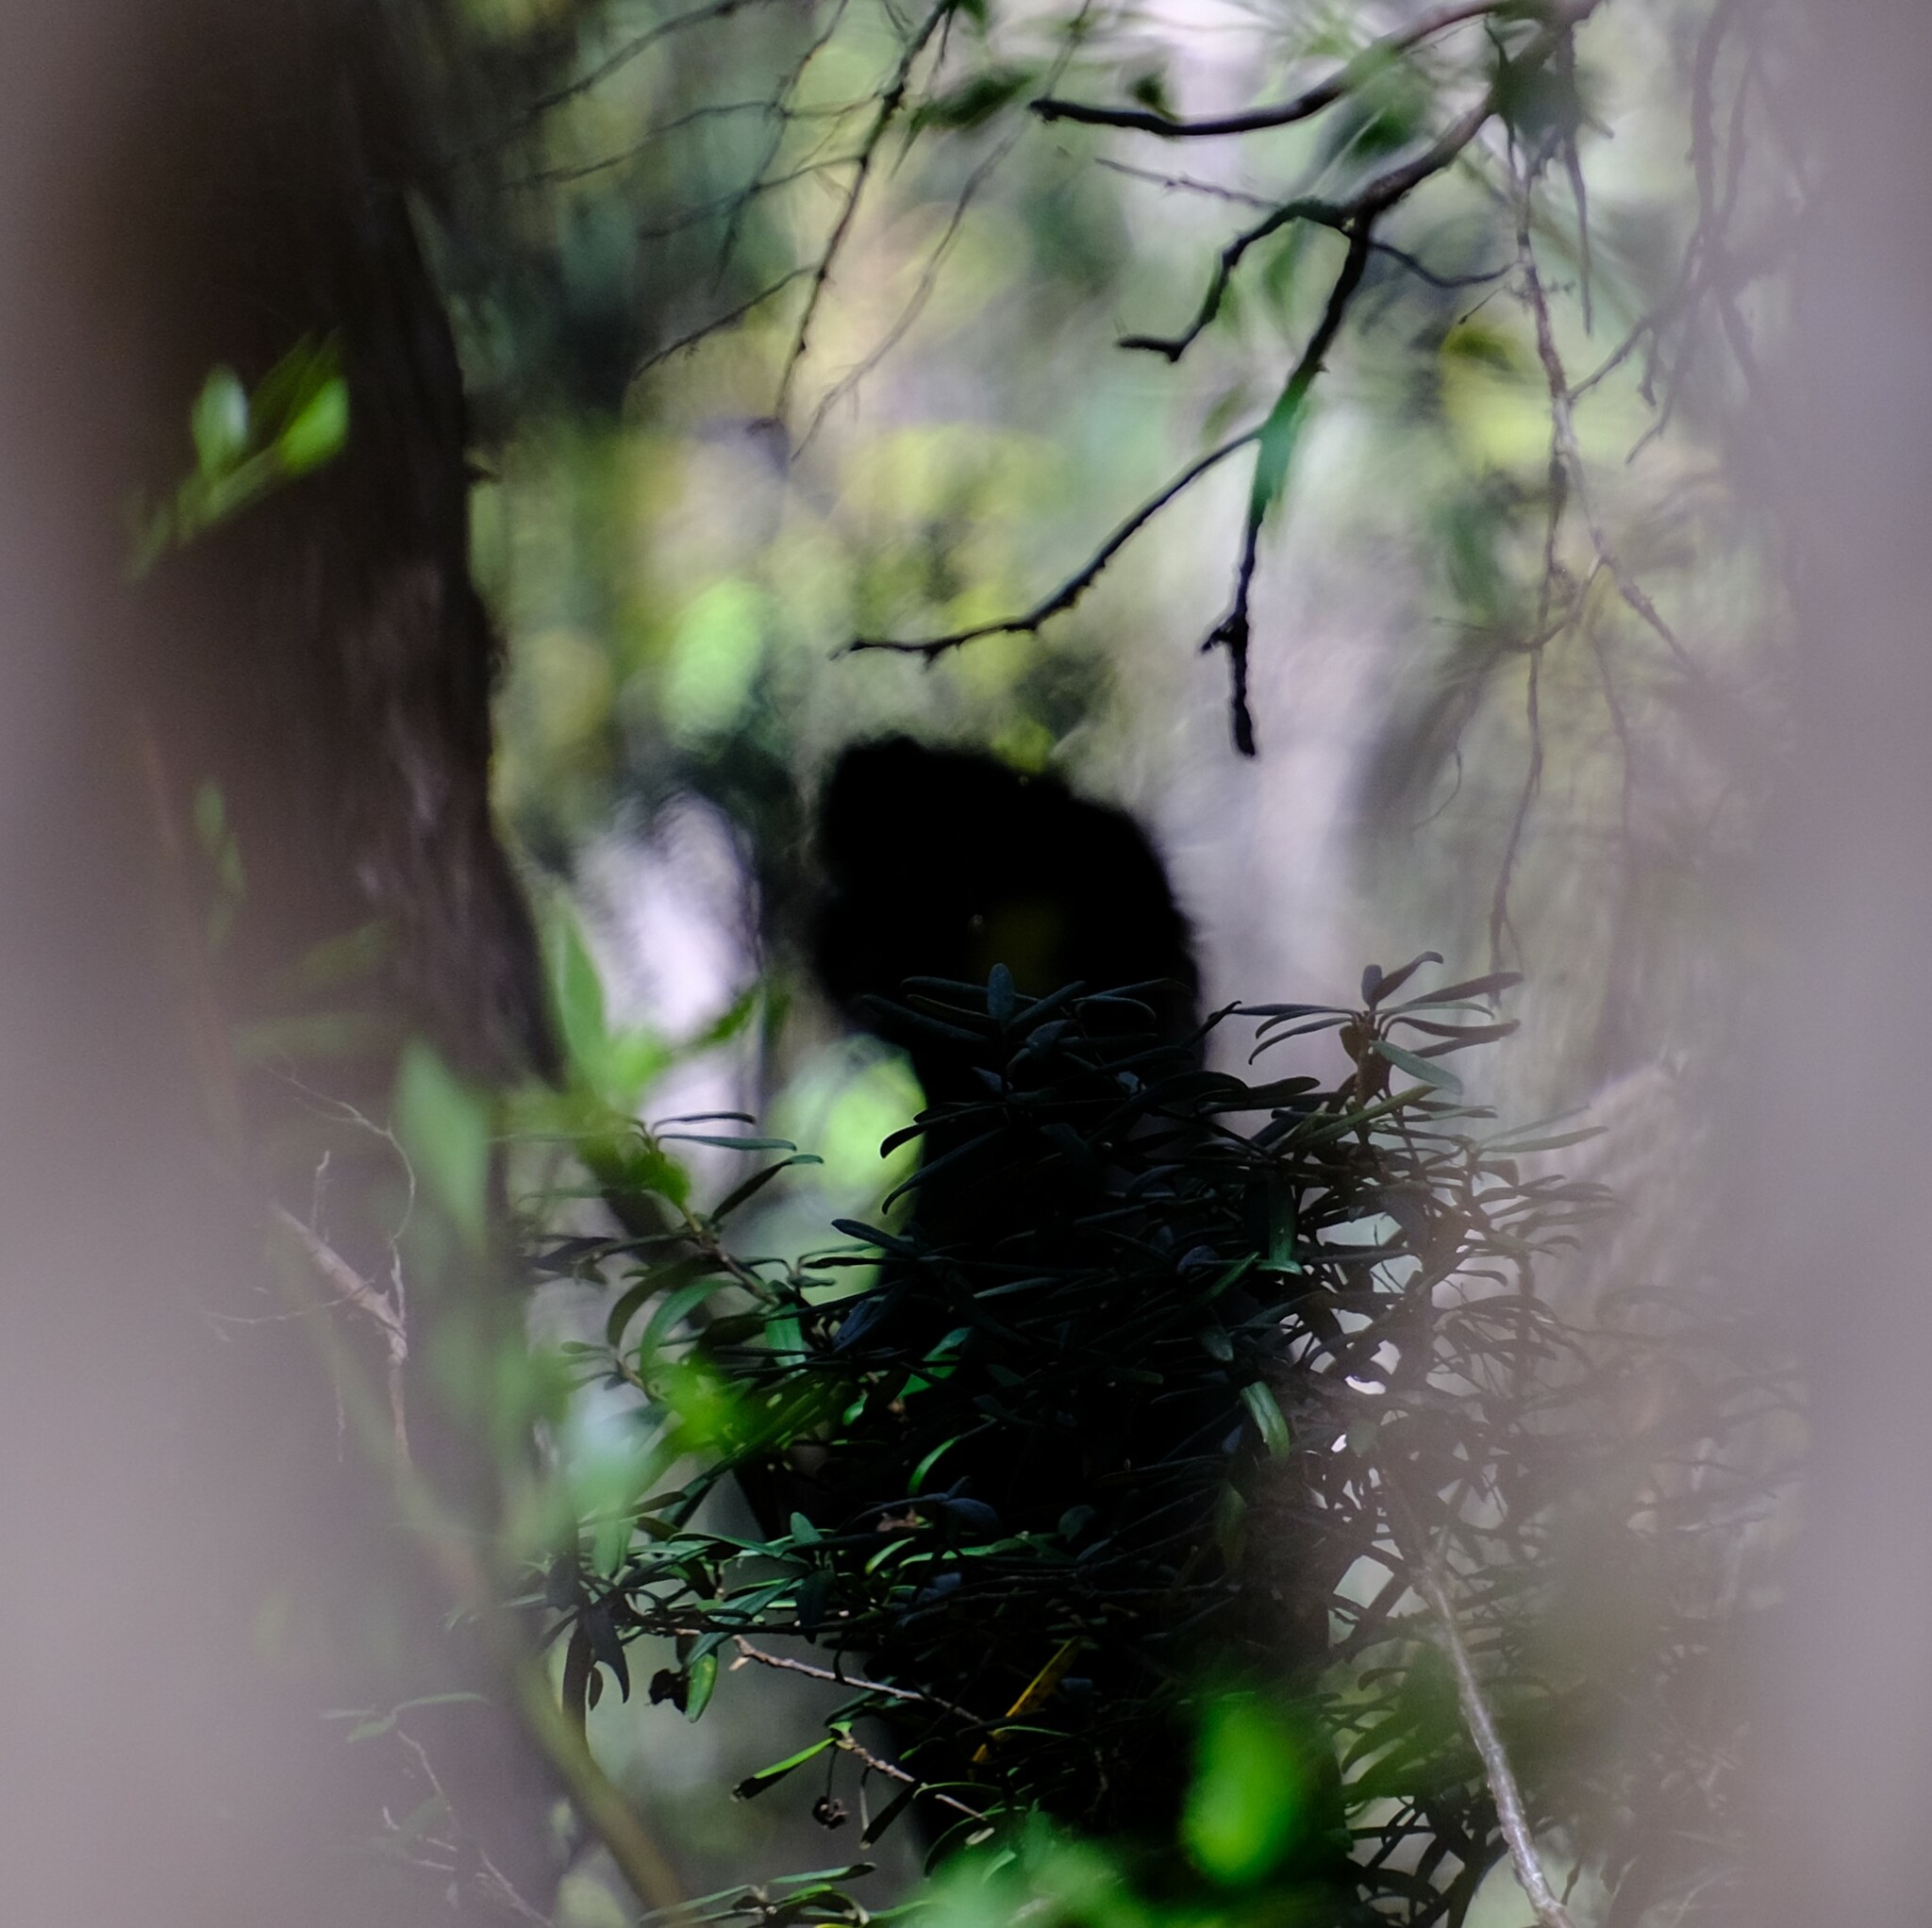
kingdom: Animalia
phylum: Chordata
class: Aves
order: Psittaciformes
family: Cacatuidae
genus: Zanda
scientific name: Zanda funerea
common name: Yellow-tailed black-cockatoo
